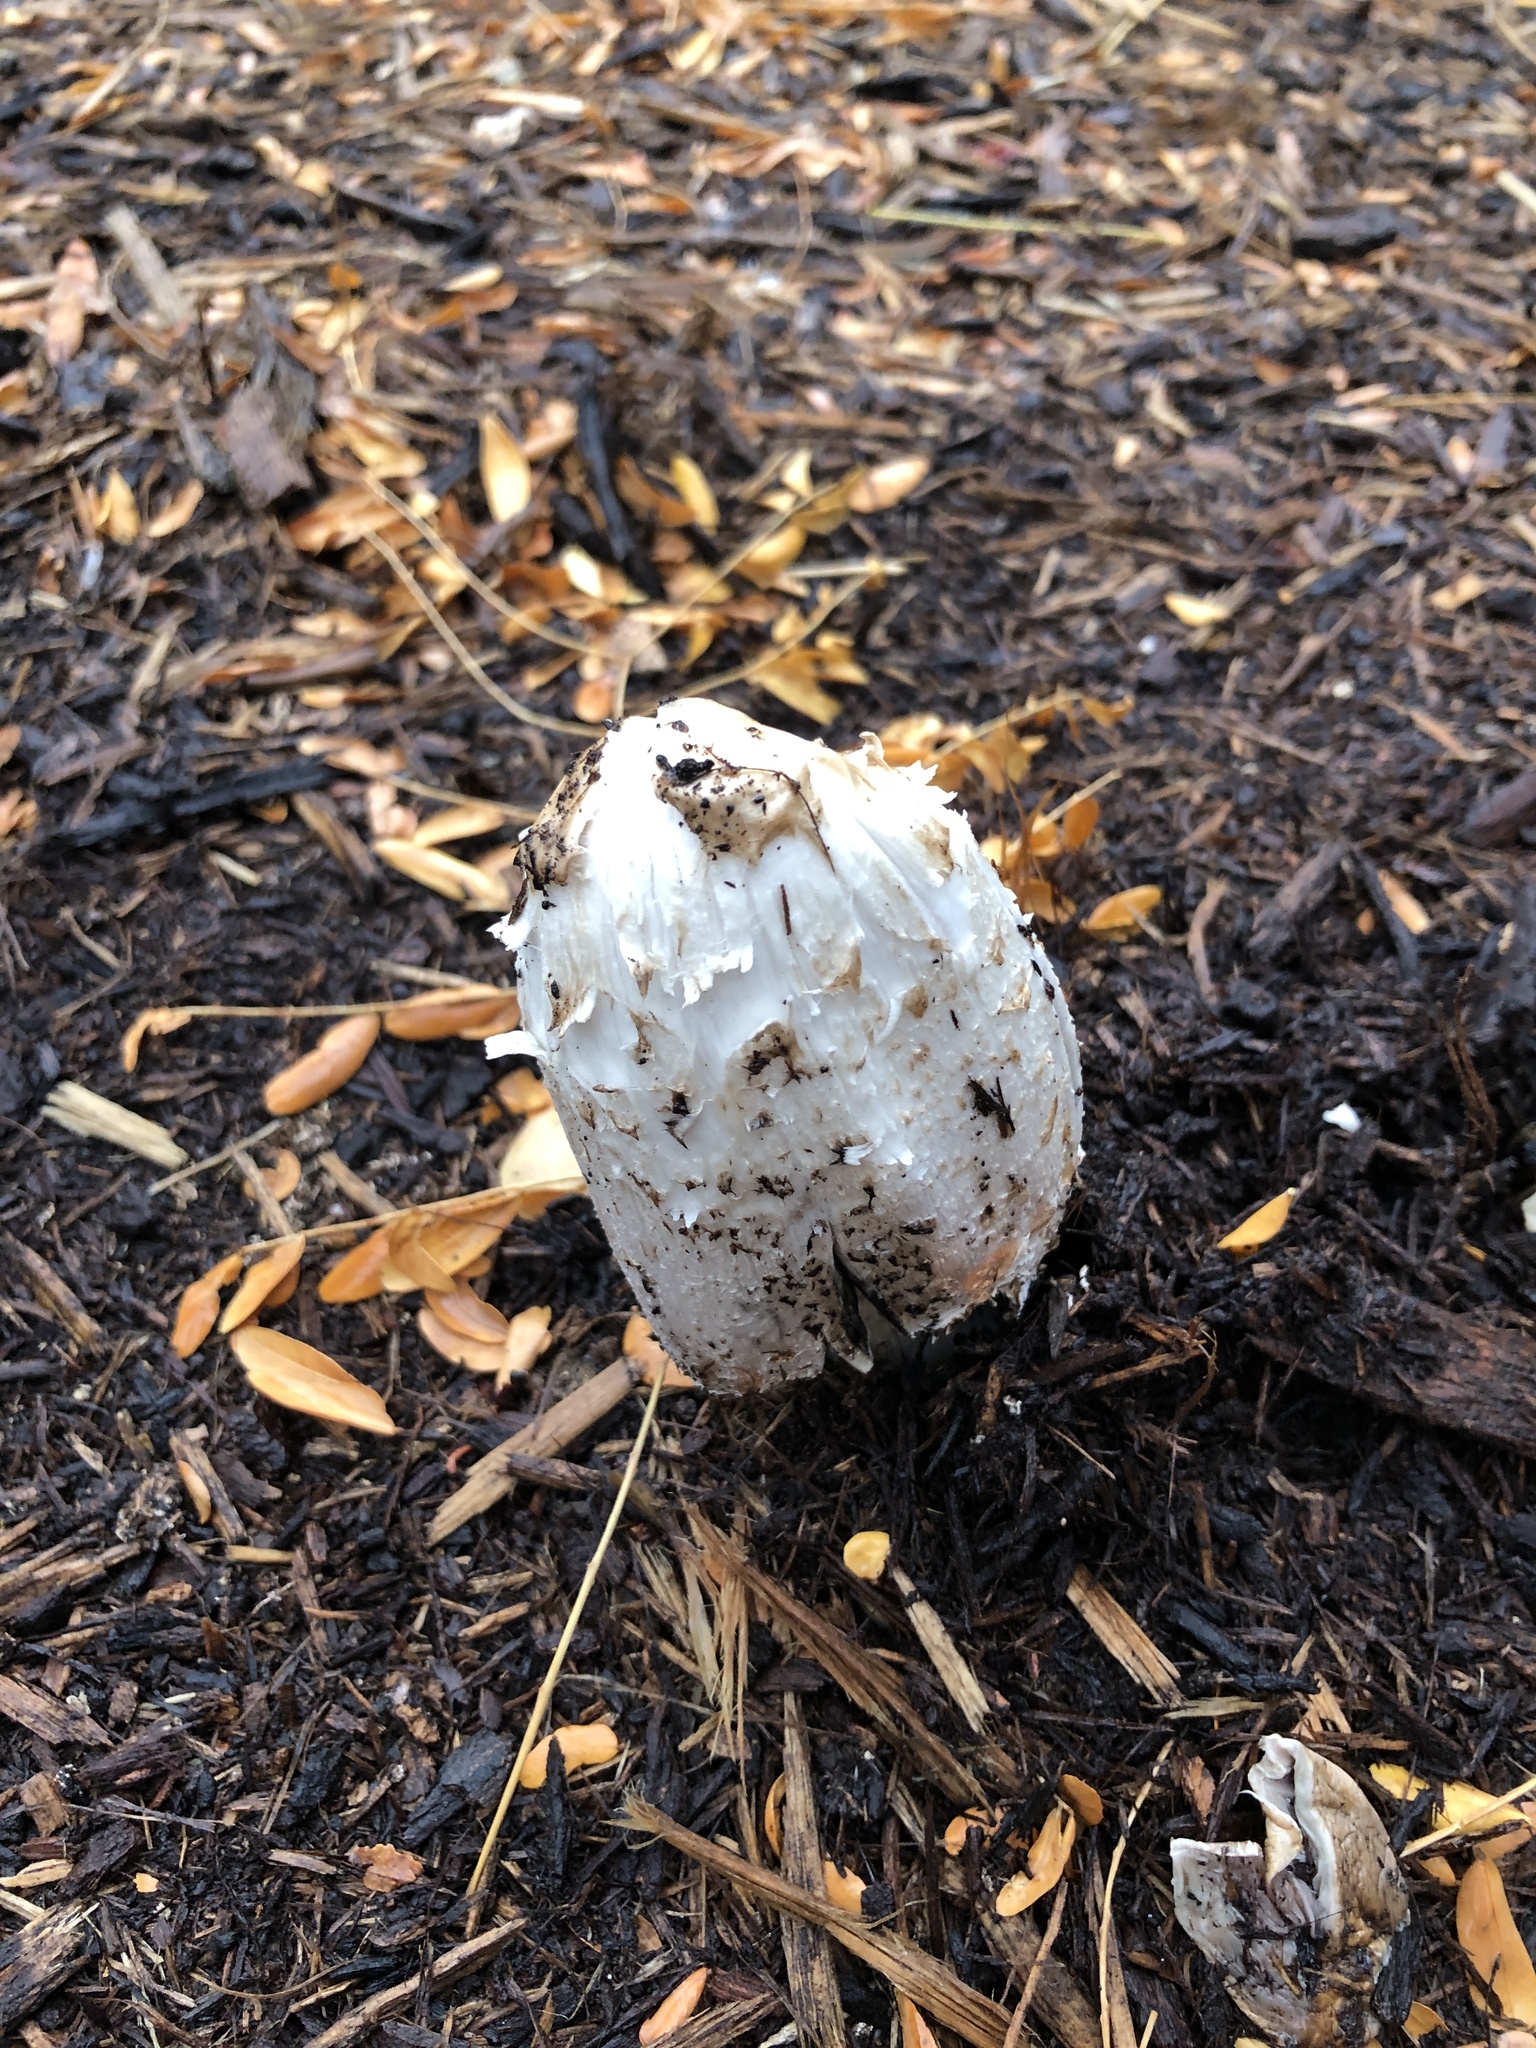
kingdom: Fungi
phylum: Basidiomycota
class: Agaricomycetes
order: Agaricales
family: Agaricaceae
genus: Coprinus
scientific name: Coprinus comatus
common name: Lawyer's wig
